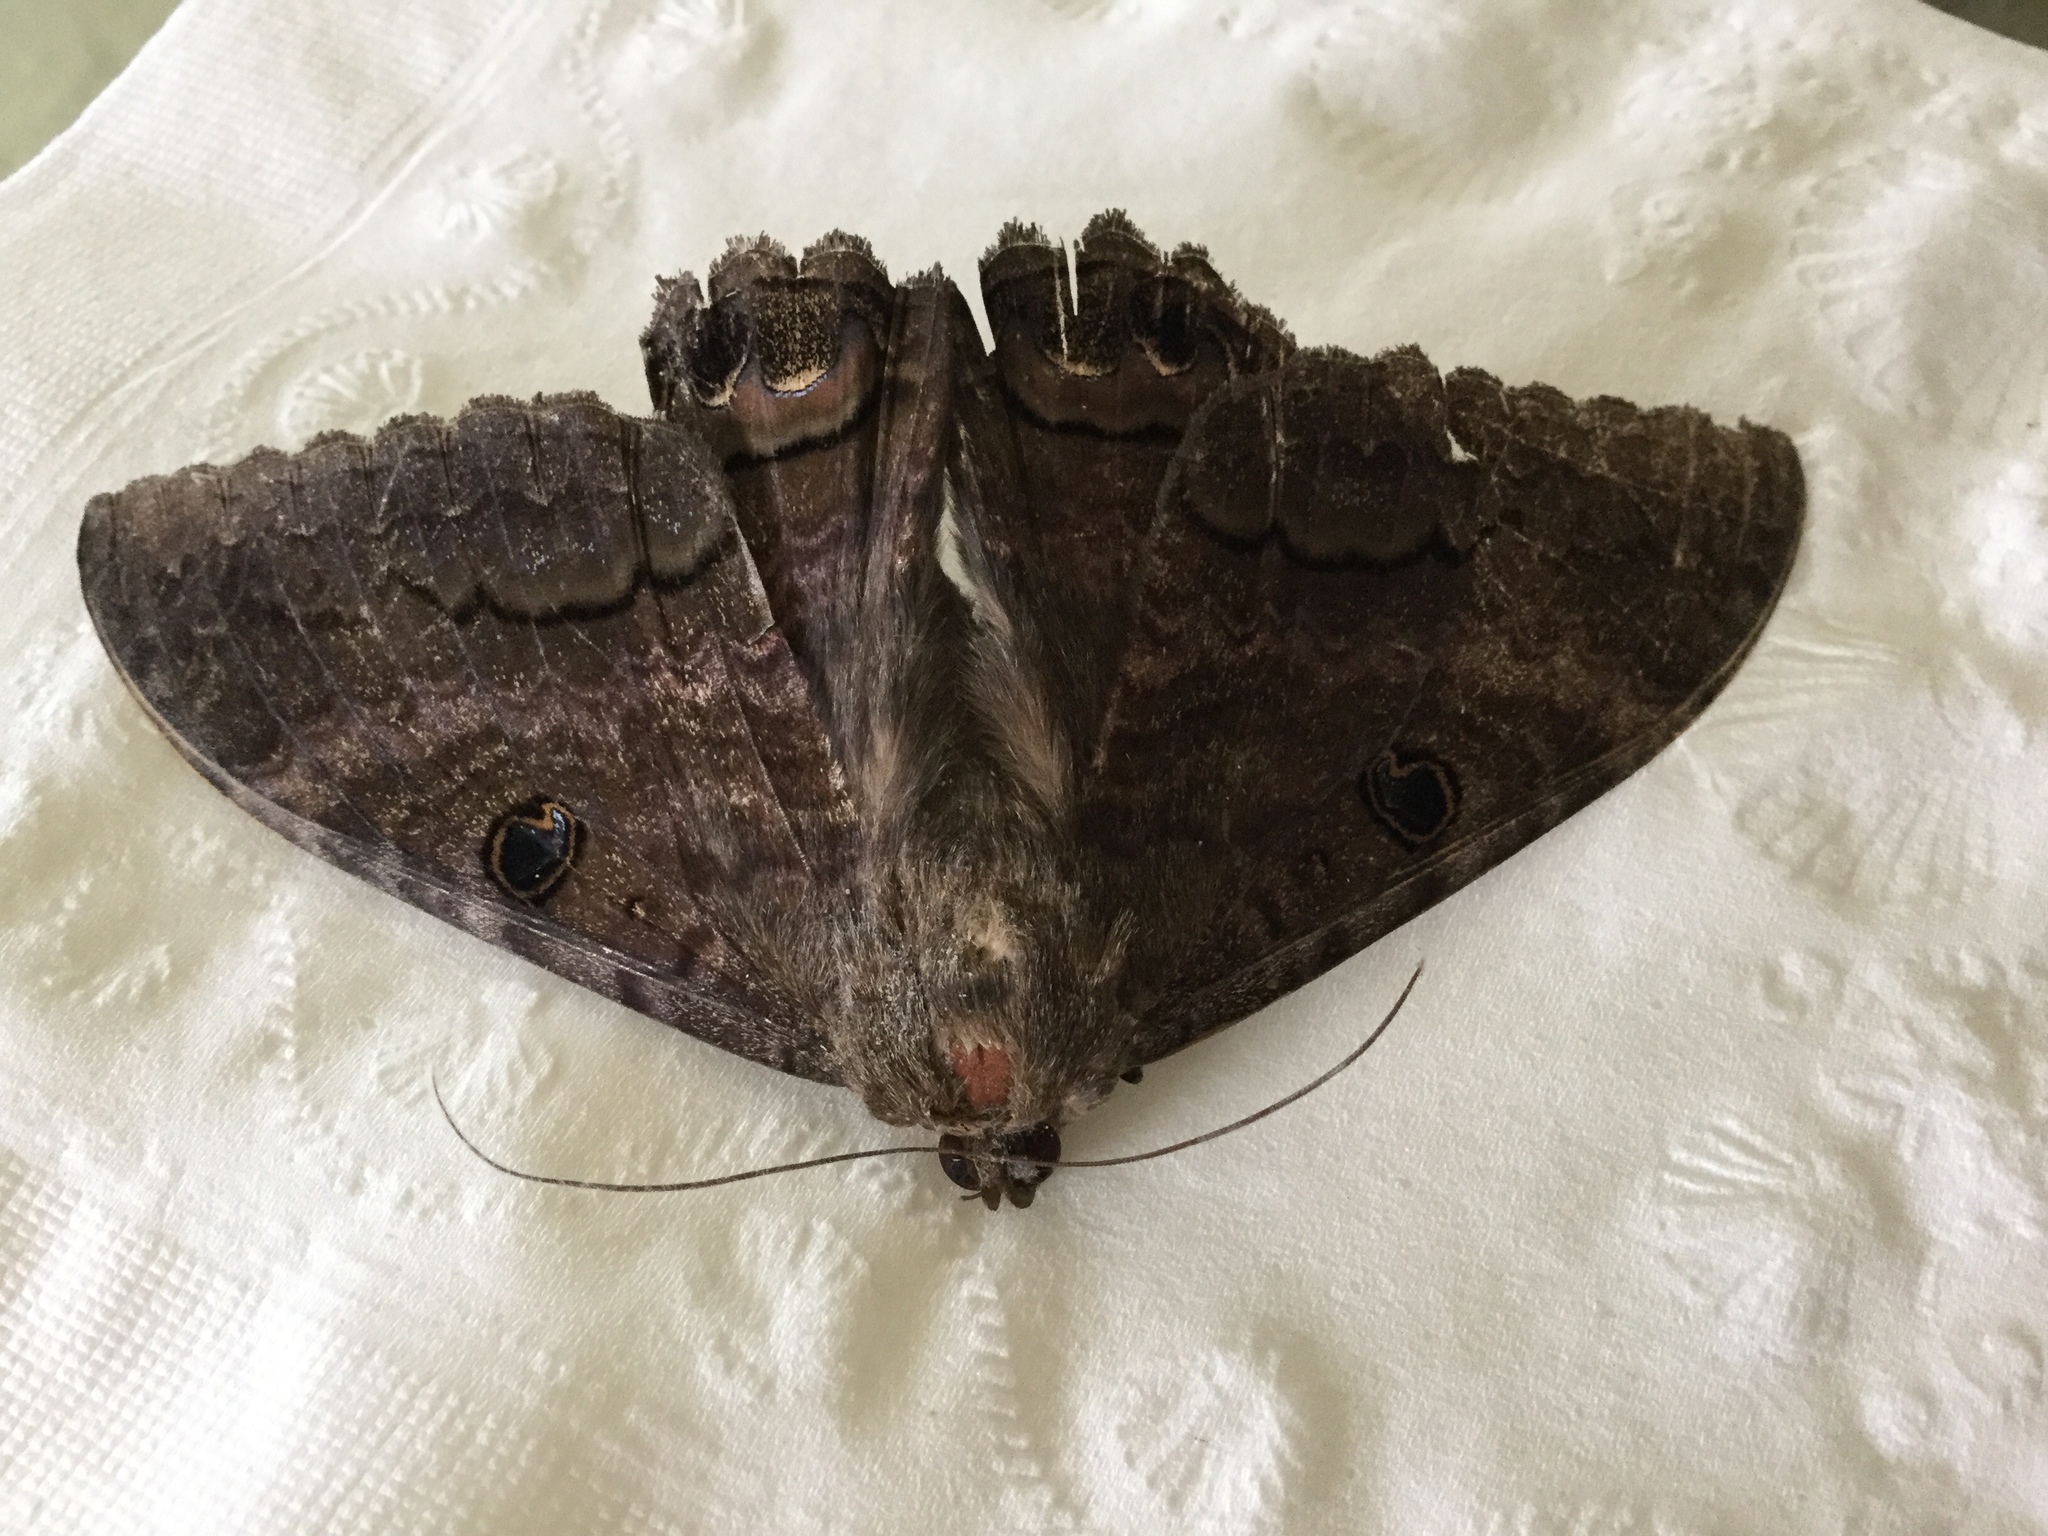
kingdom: Animalia
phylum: Arthropoda
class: Insecta
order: Lepidoptera
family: Erebidae
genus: Ascalapha
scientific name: Ascalapha odorata
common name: Black witch
